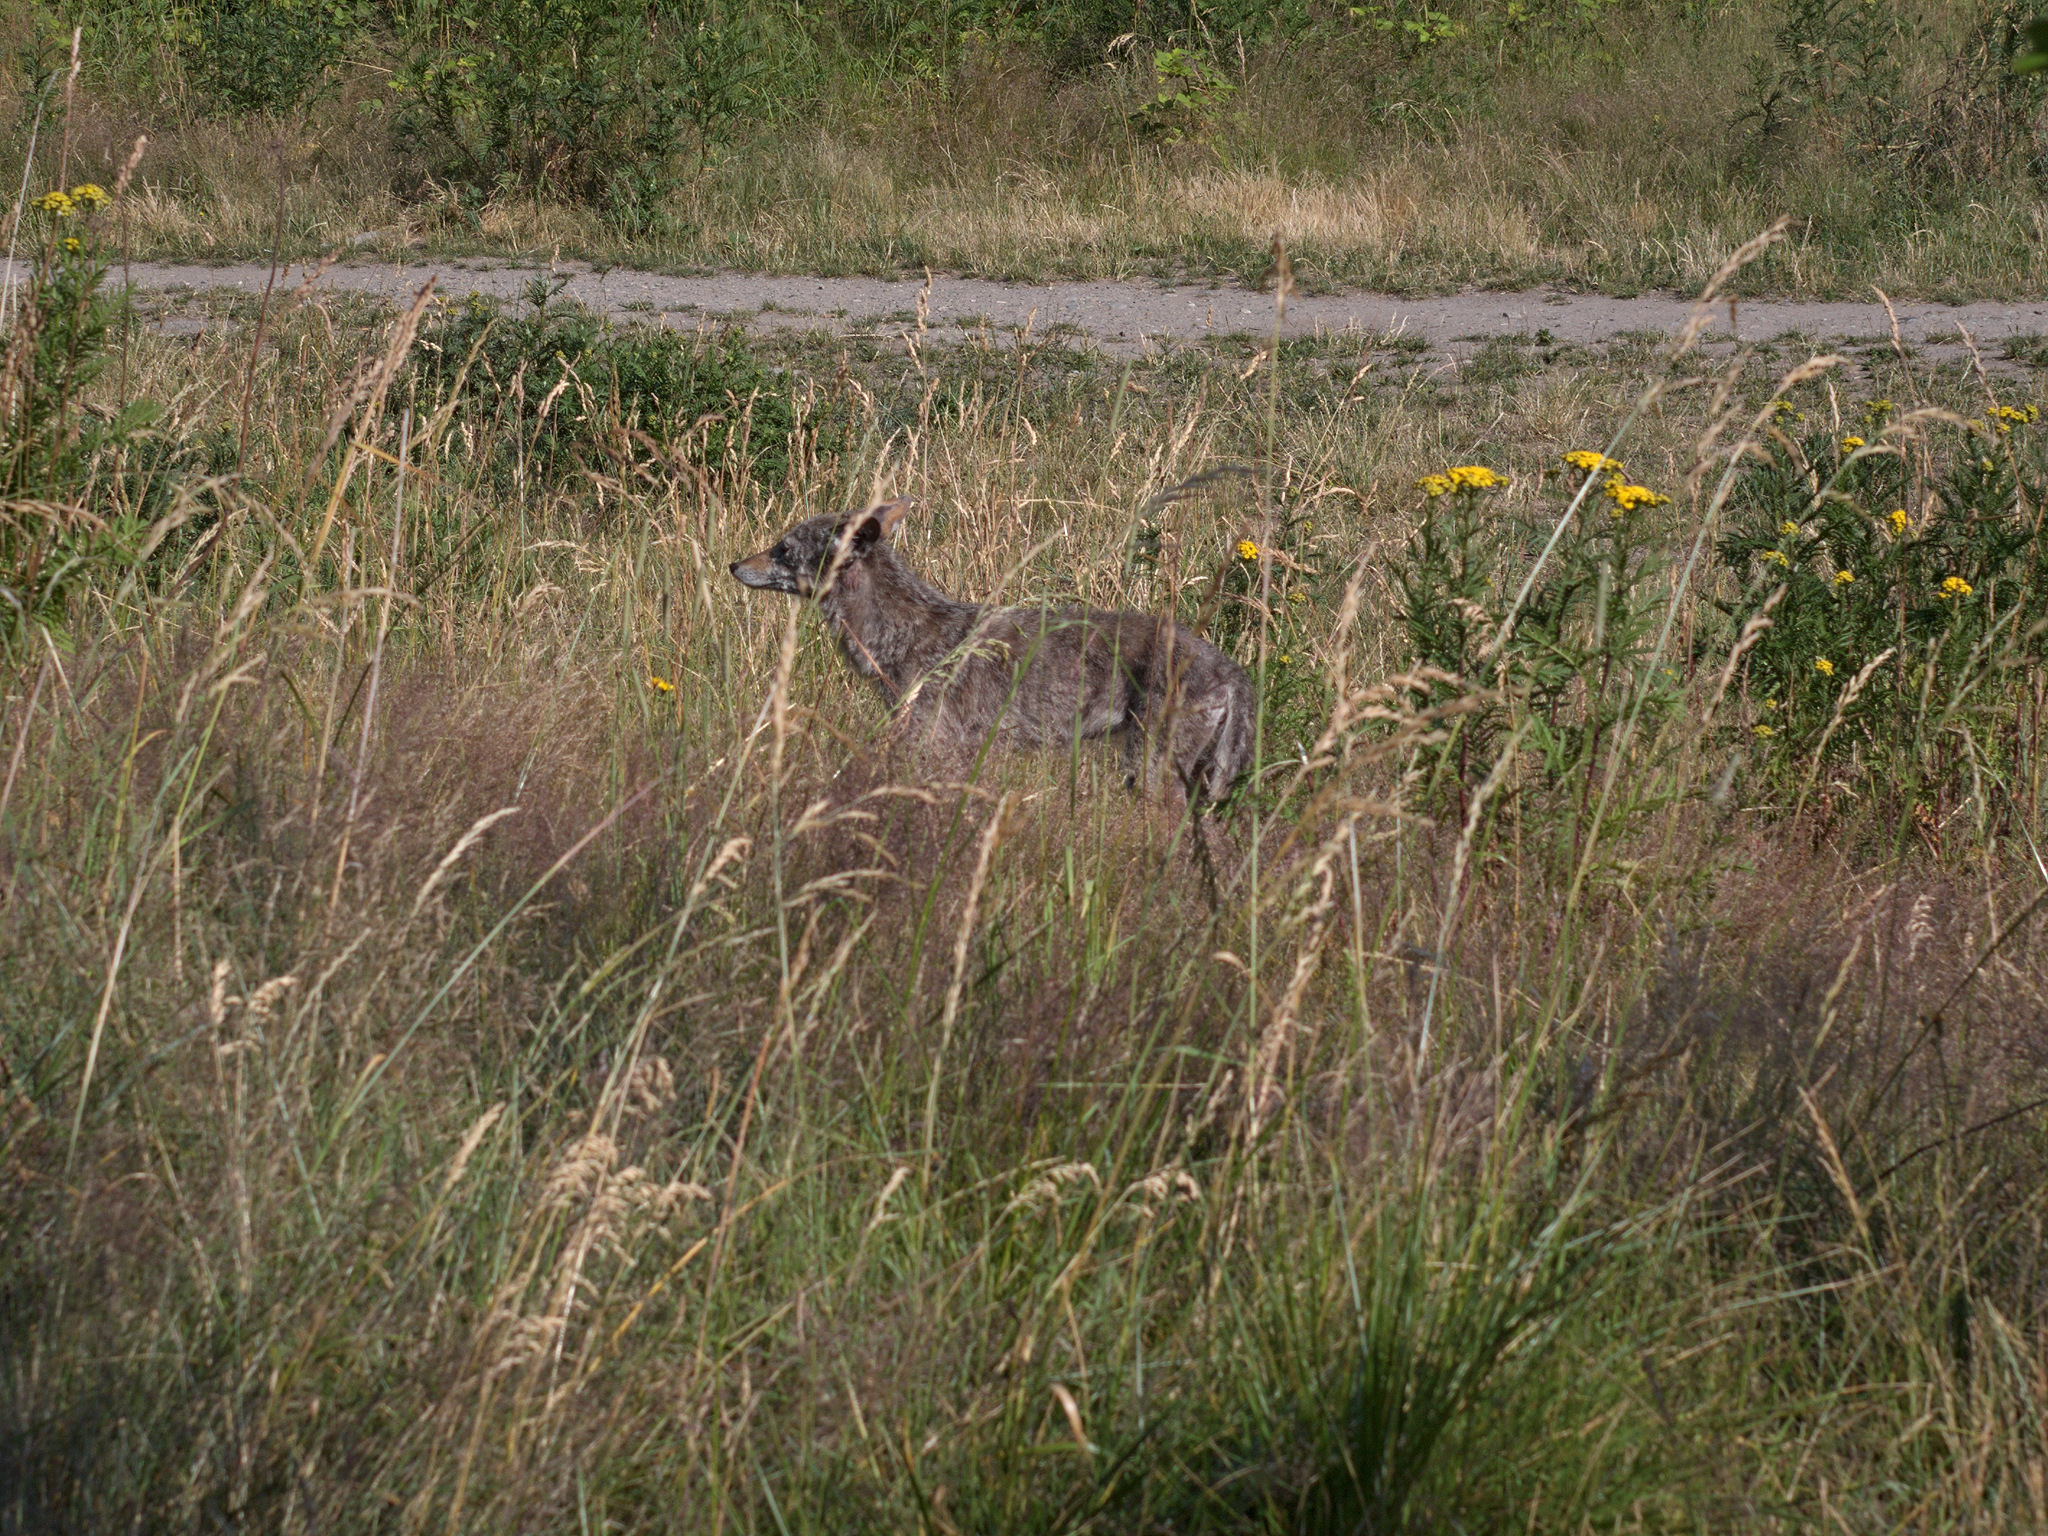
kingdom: Animalia
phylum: Chordata
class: Mammalia
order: Carnivora
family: Canidae
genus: Canis
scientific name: Canis latrans
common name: Coyote
